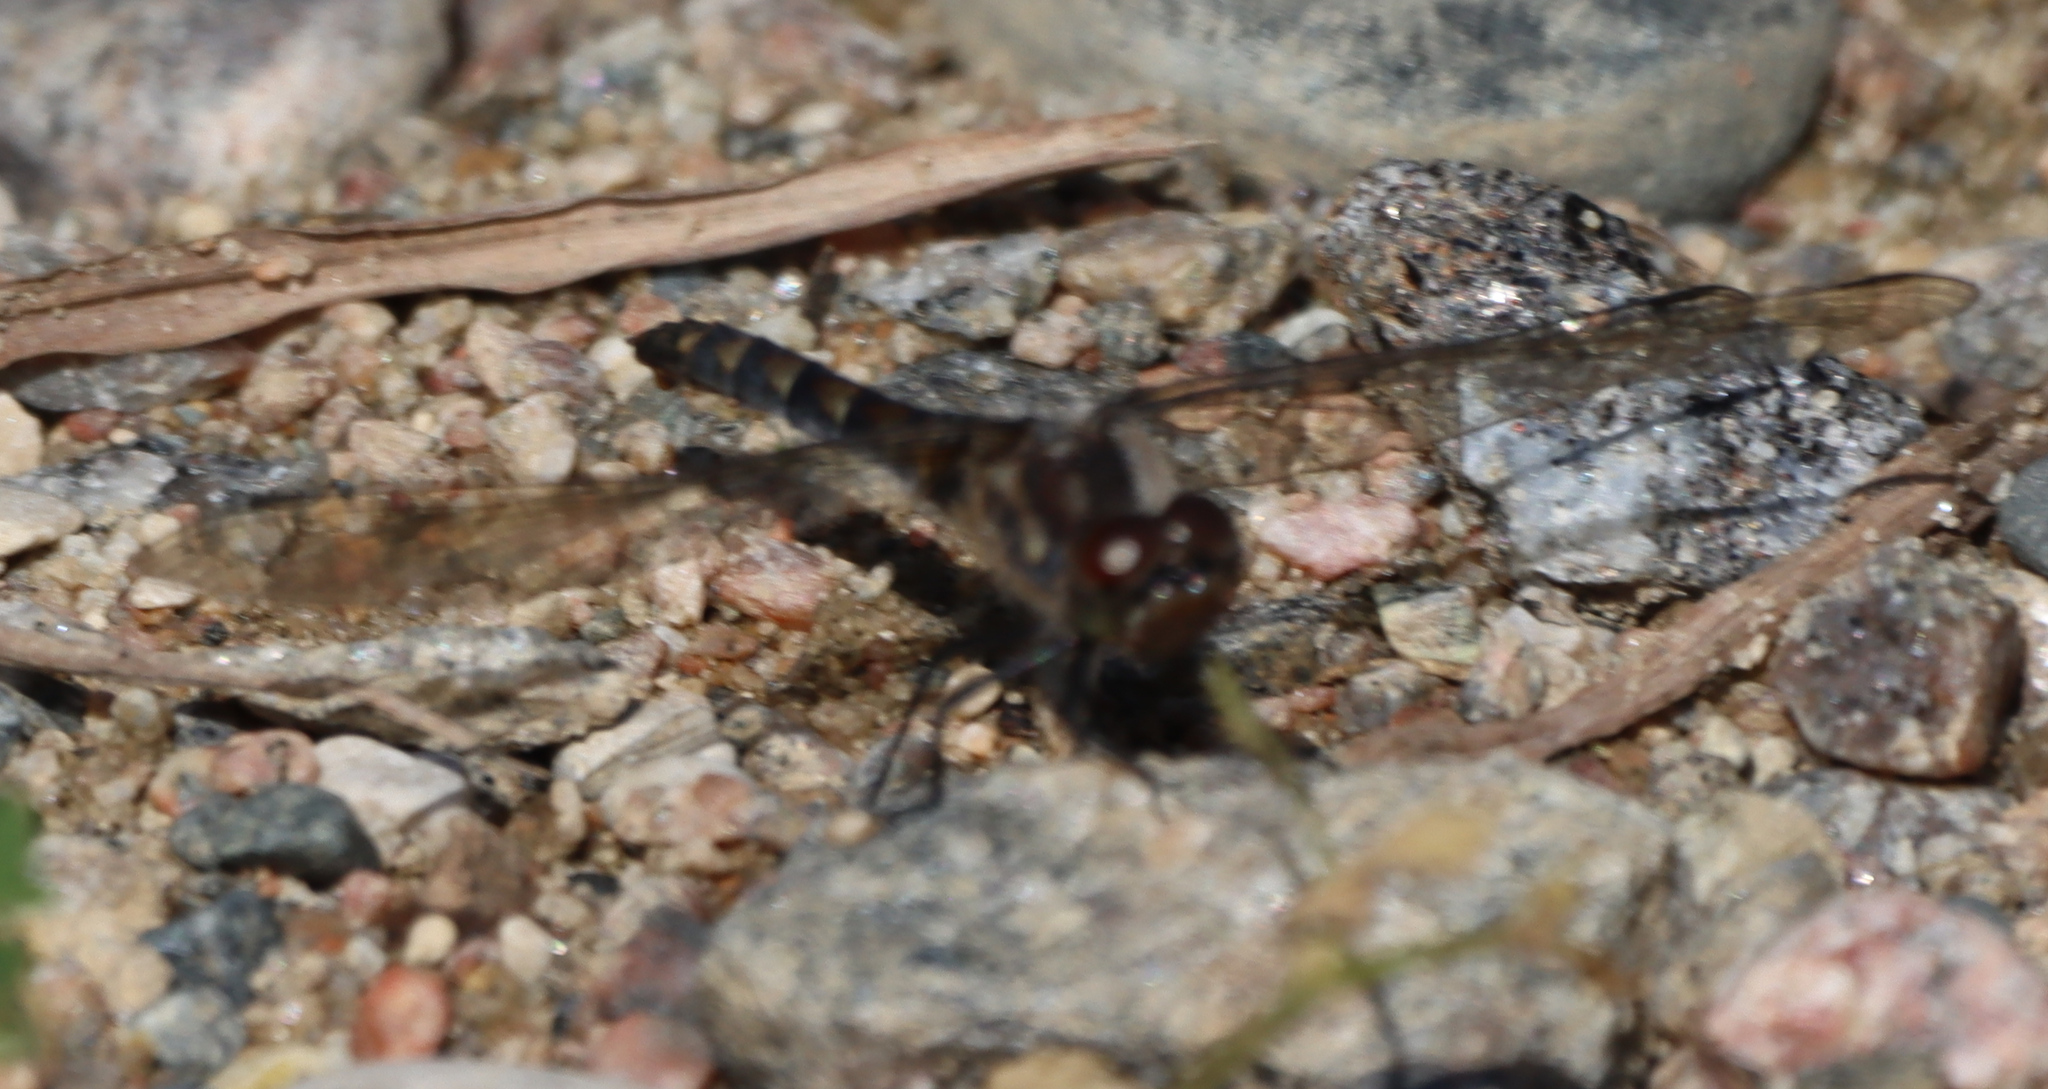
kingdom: Animalia
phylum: Arthropoda
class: Insecta
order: Odonata
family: Libellulidae
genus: Sympetrum
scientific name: Sympetrum danae
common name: Black darter
